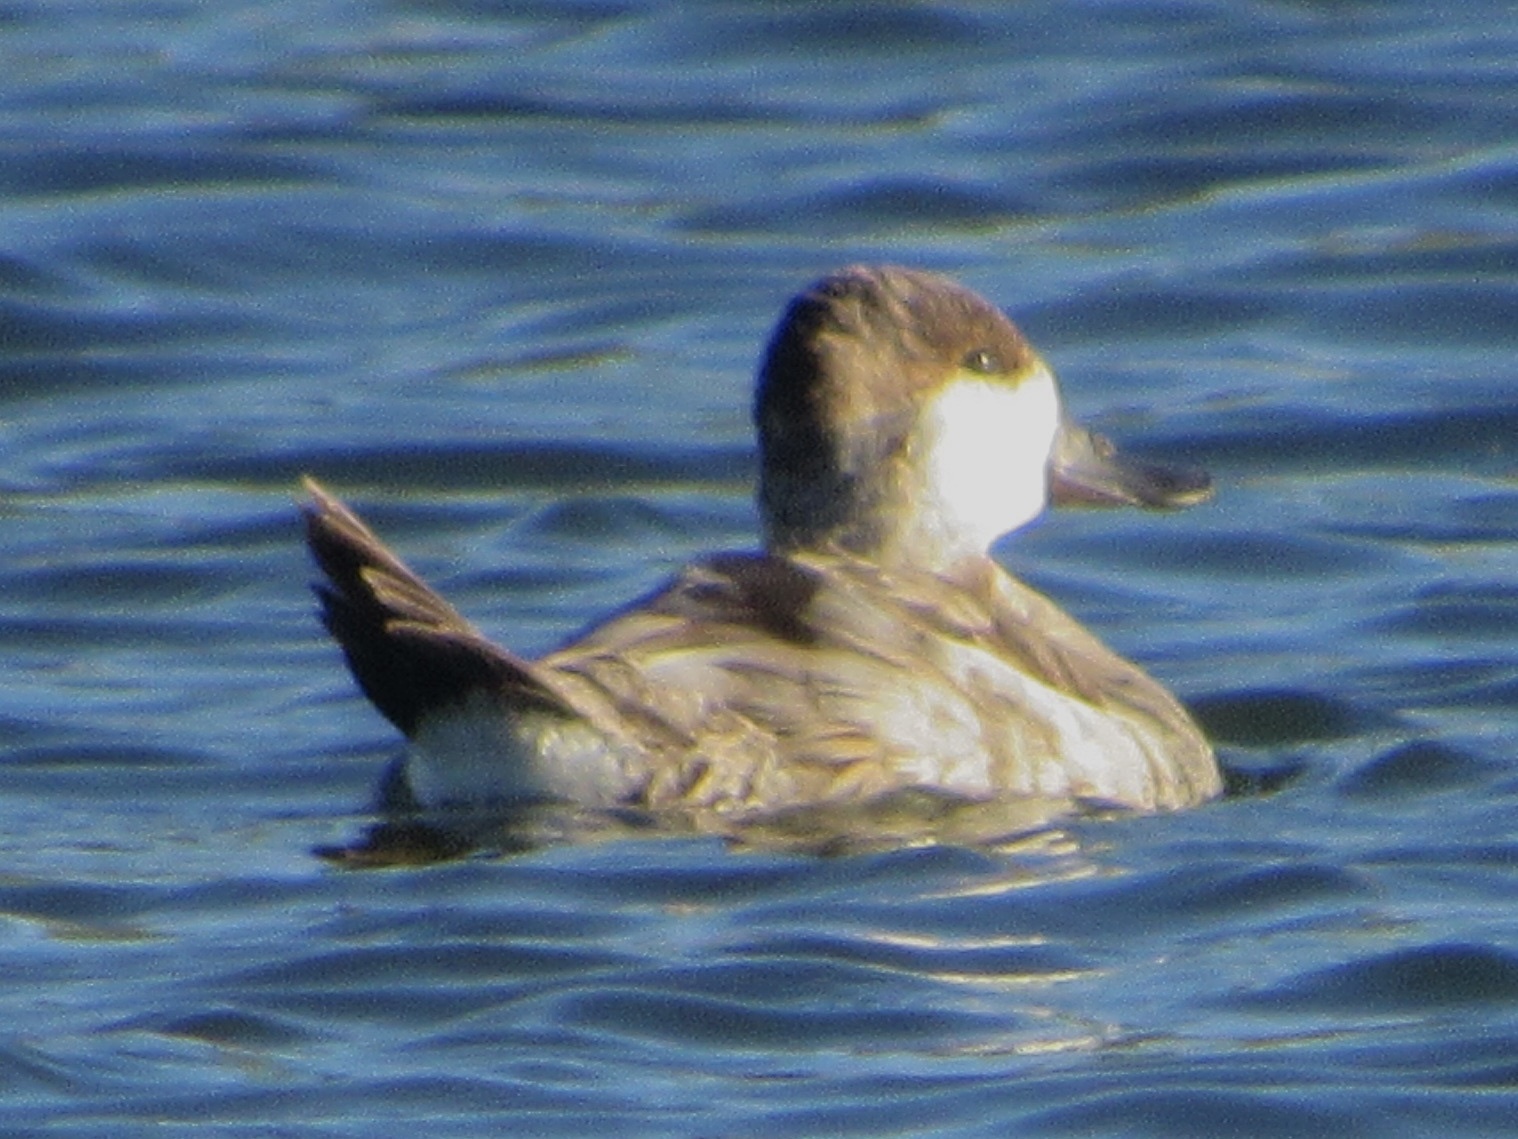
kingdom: Animalia
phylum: Chordata
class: Aves
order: Anseriformes
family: Anatidae
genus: Oxyura
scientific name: Oxyura jamaicensis
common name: Ruddy duck
